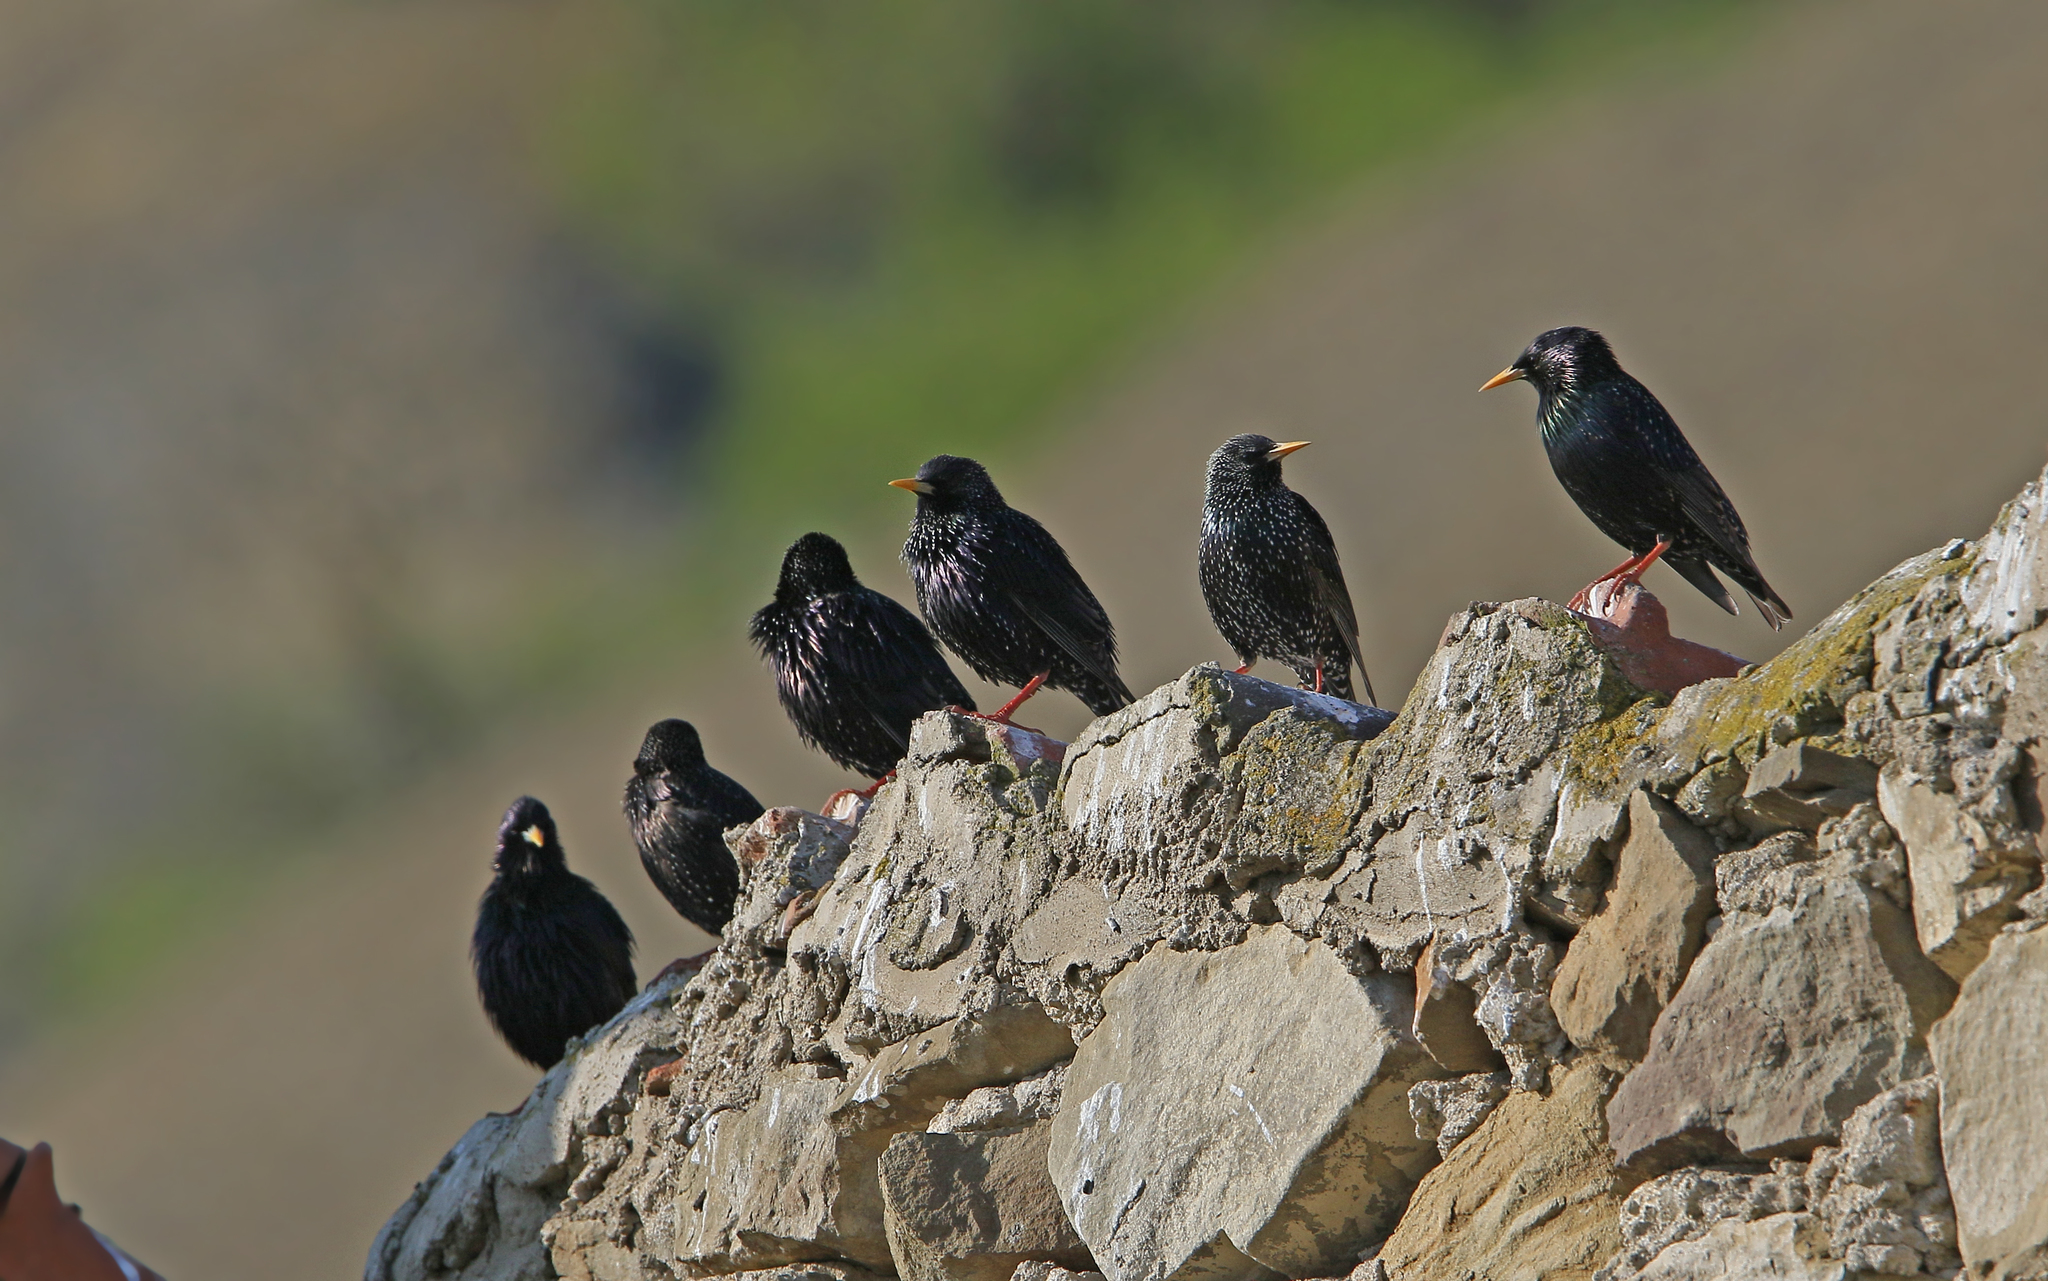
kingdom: Animalia
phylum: Chordata
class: Aves
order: Passeriformes
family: Sturnidae
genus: Sturnus
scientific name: Sturnus vulgaris
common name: Common starling
